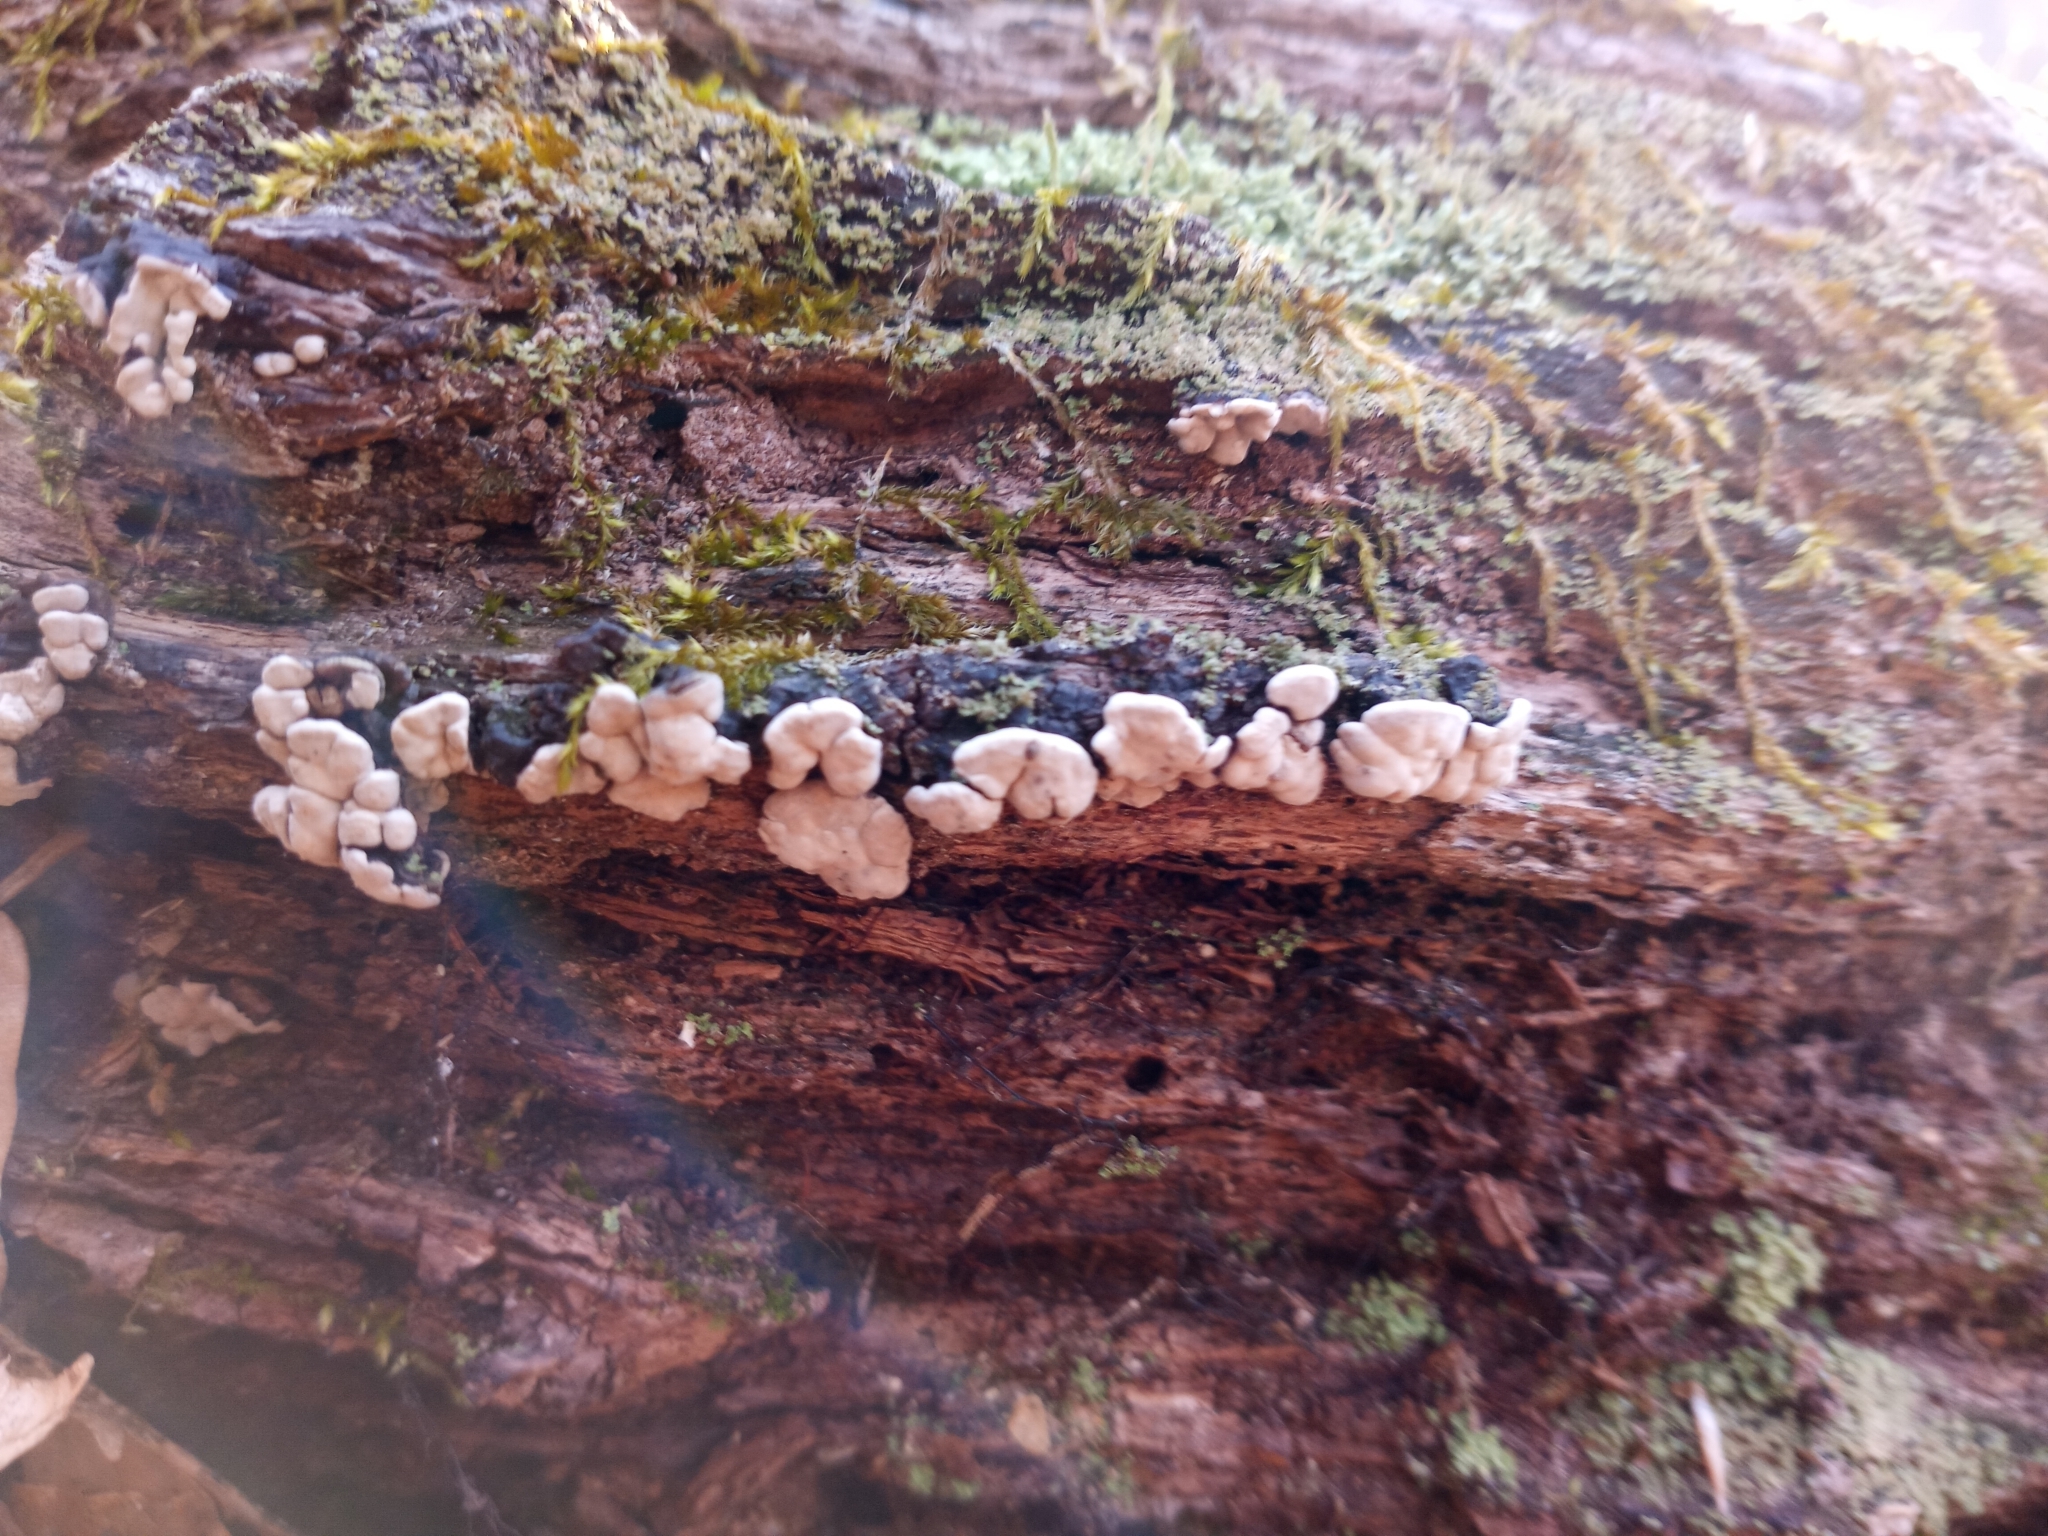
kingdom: Fungi
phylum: Basidiomycota
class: Agaricomycetes
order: Russulales
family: Stereaceae
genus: Xylobolus
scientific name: Xylobolus frustulatus
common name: Ceramic parchment
